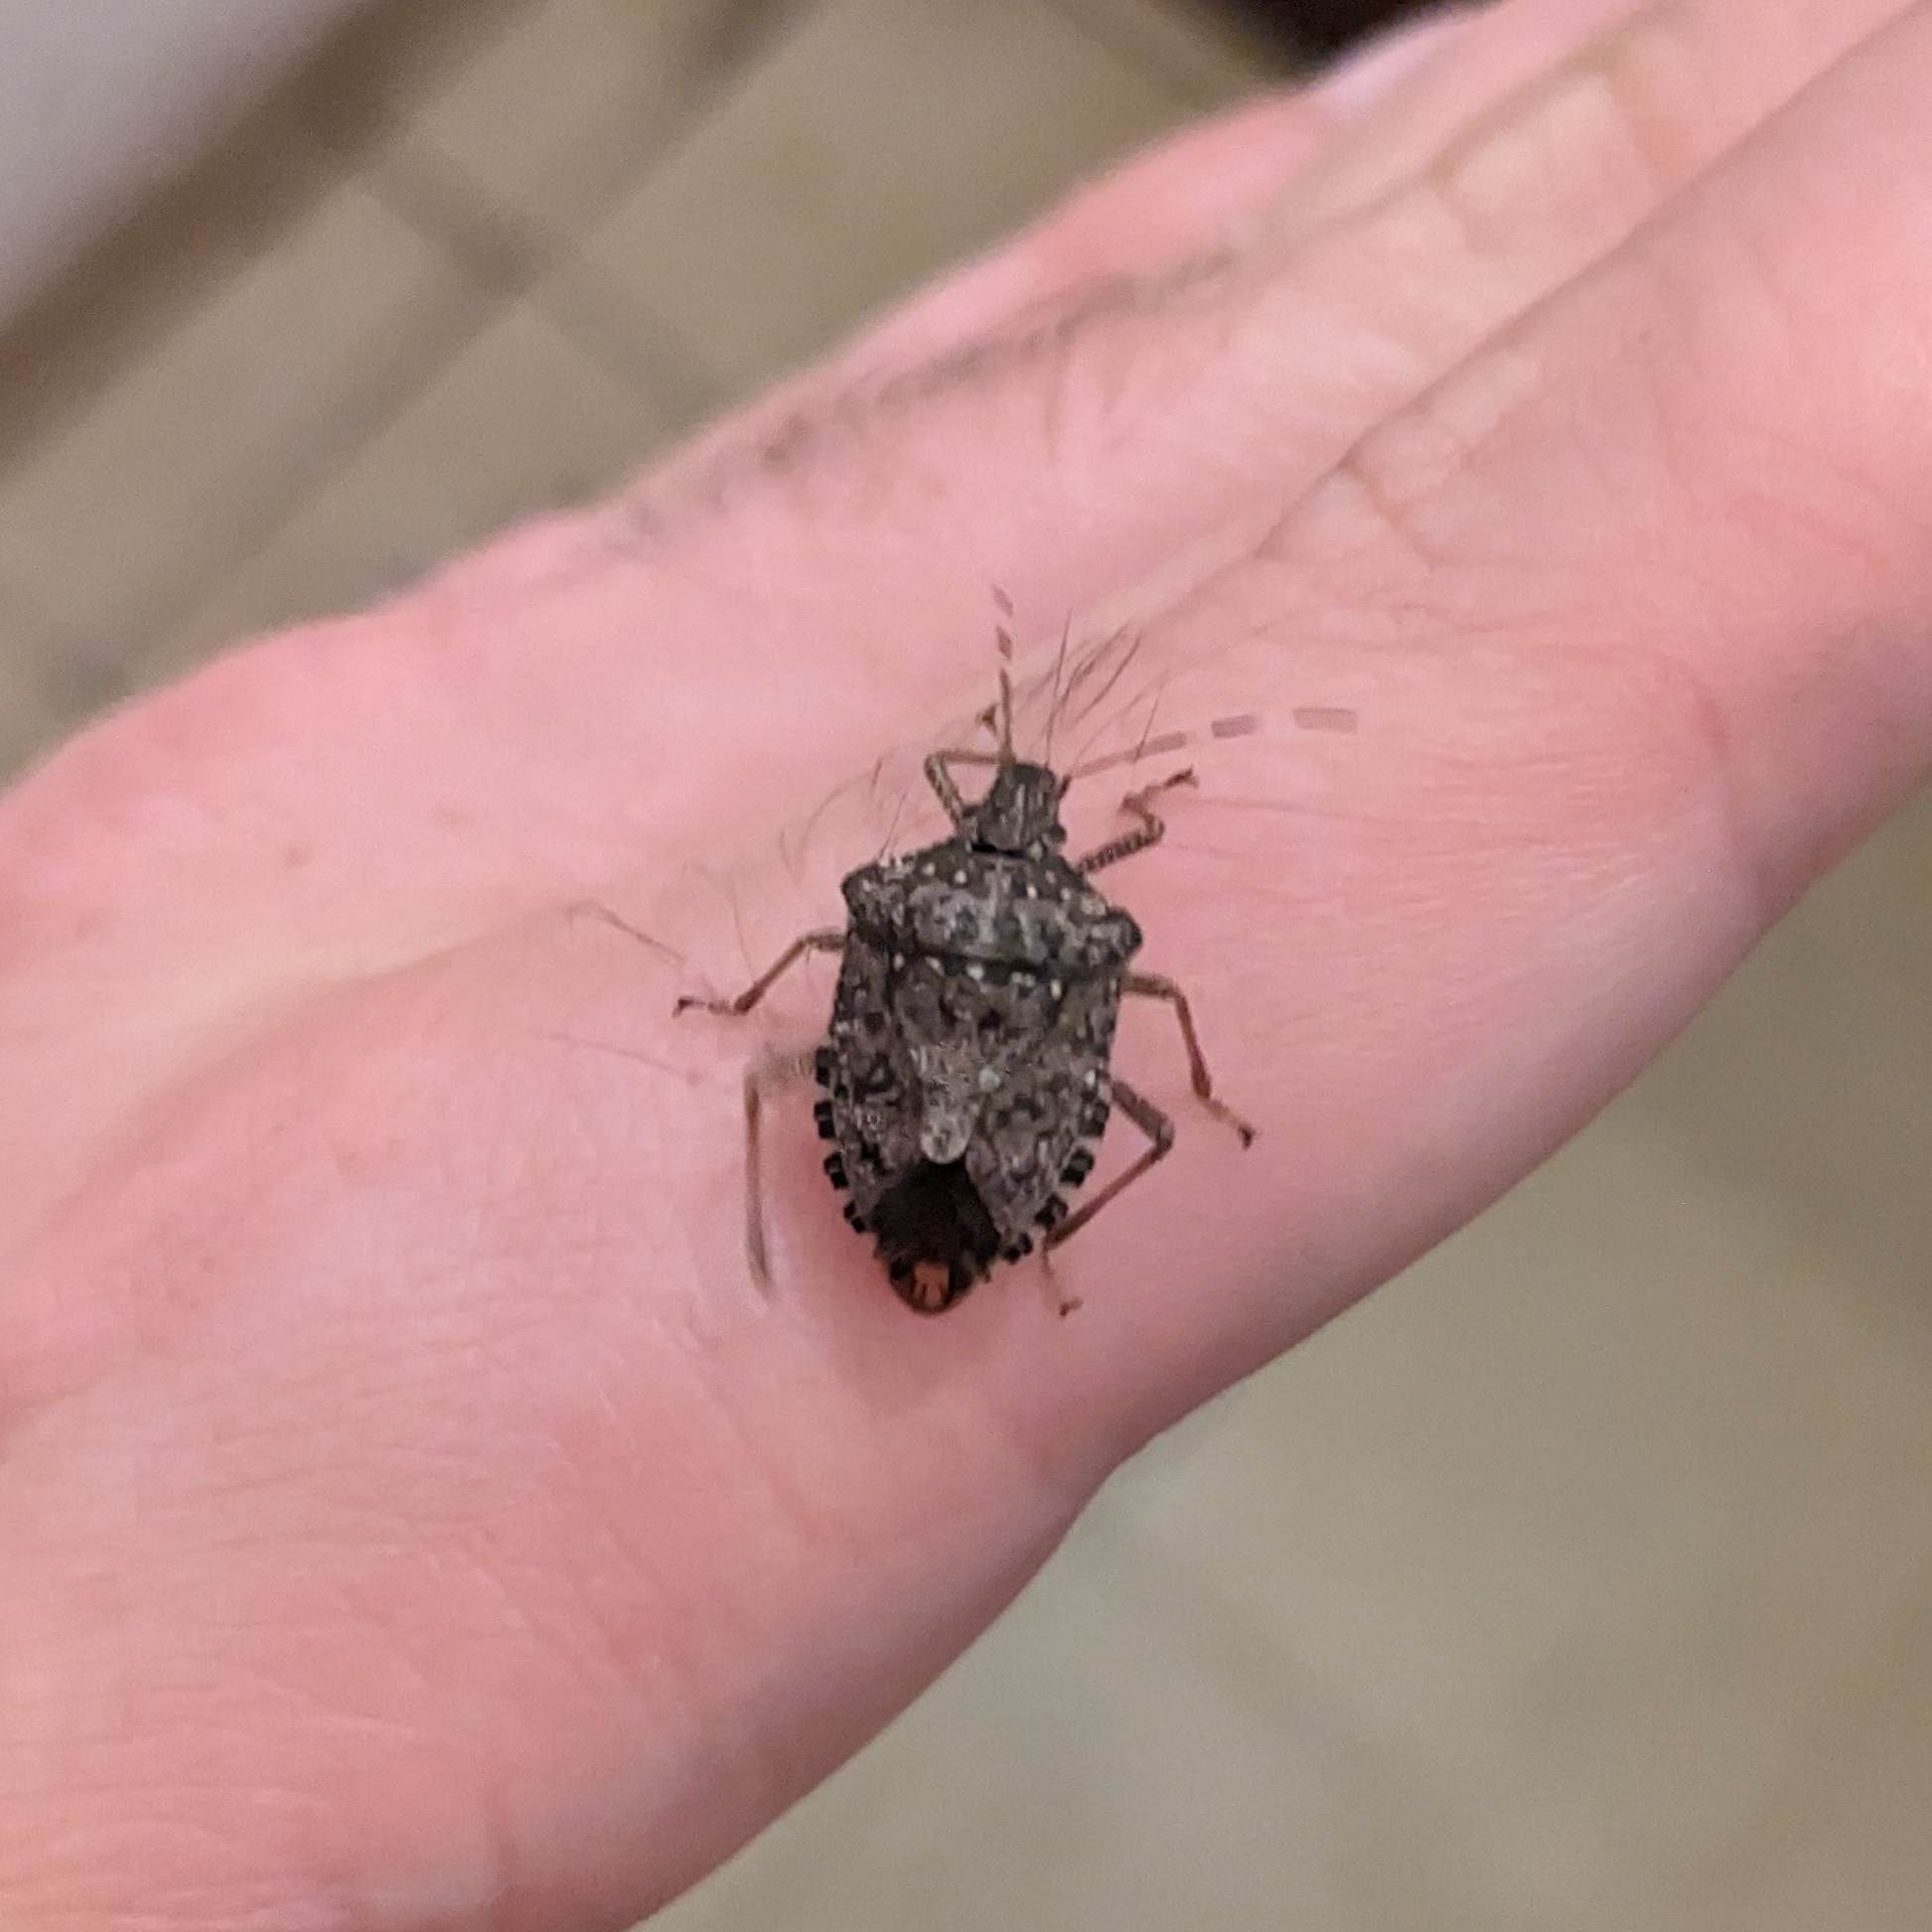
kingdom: Animalia
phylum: Arthropoda
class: Insecta
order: Hemiptera
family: Pentatomidae
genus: Halyomorpha
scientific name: Halyomorpha halys
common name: Brown marmorated stink bug
